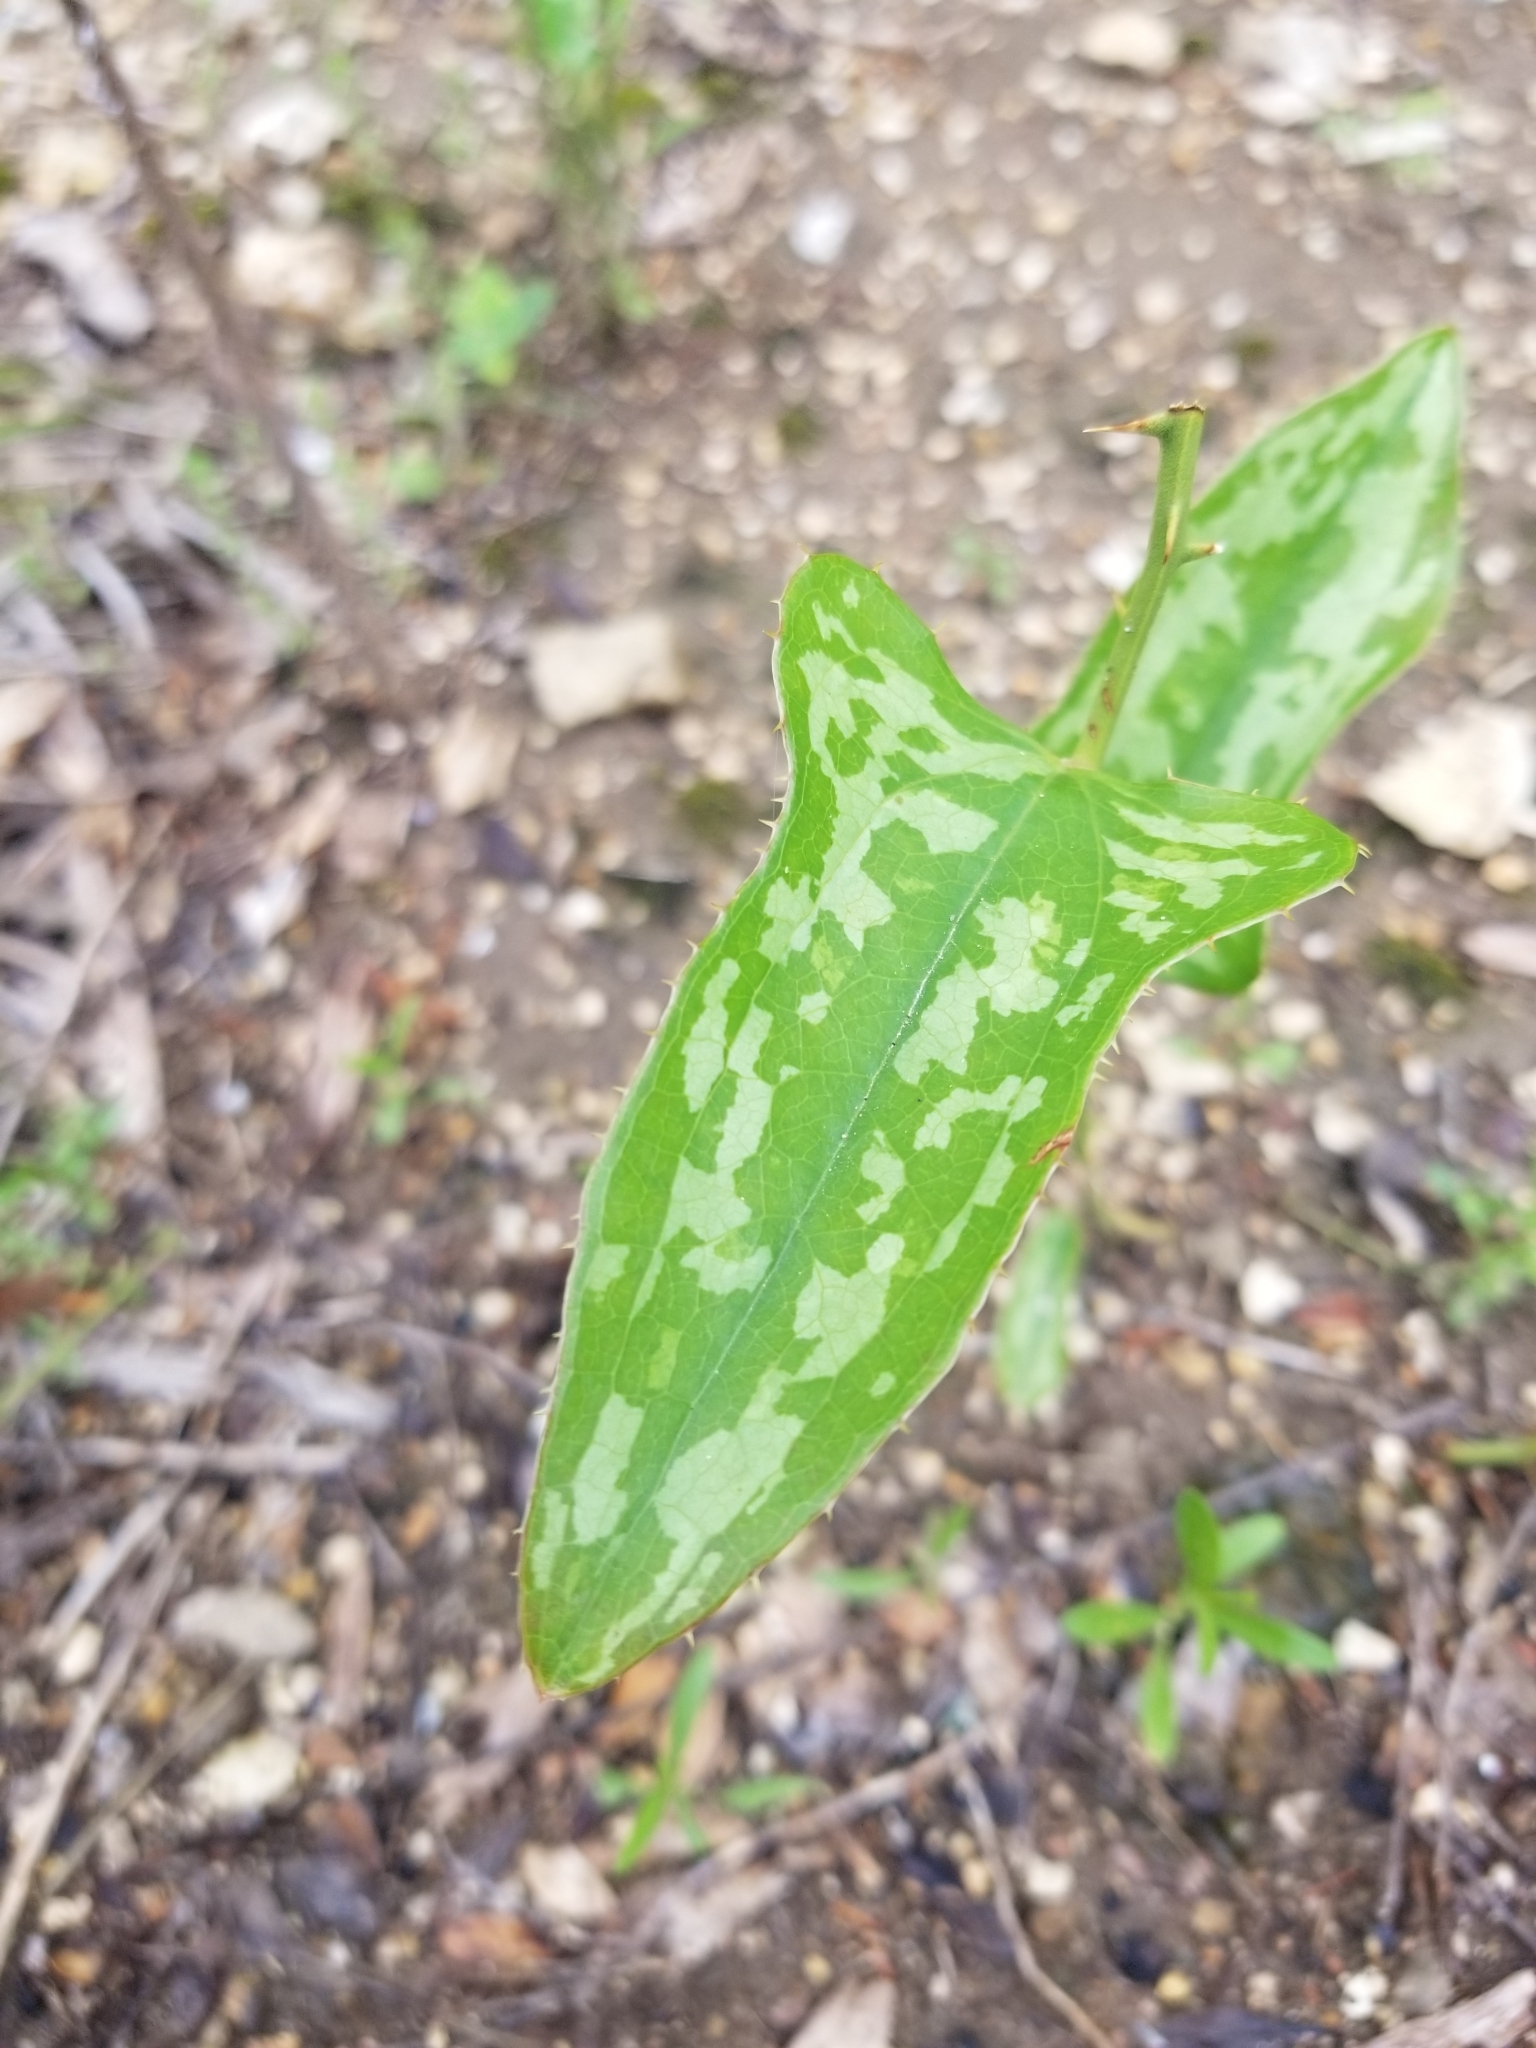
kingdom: Plantae
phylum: Tracheophyta
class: Liliopsida
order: Liliales
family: Smilacaceae
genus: Smilax
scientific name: Smilax bona-nox
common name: Catbrier
